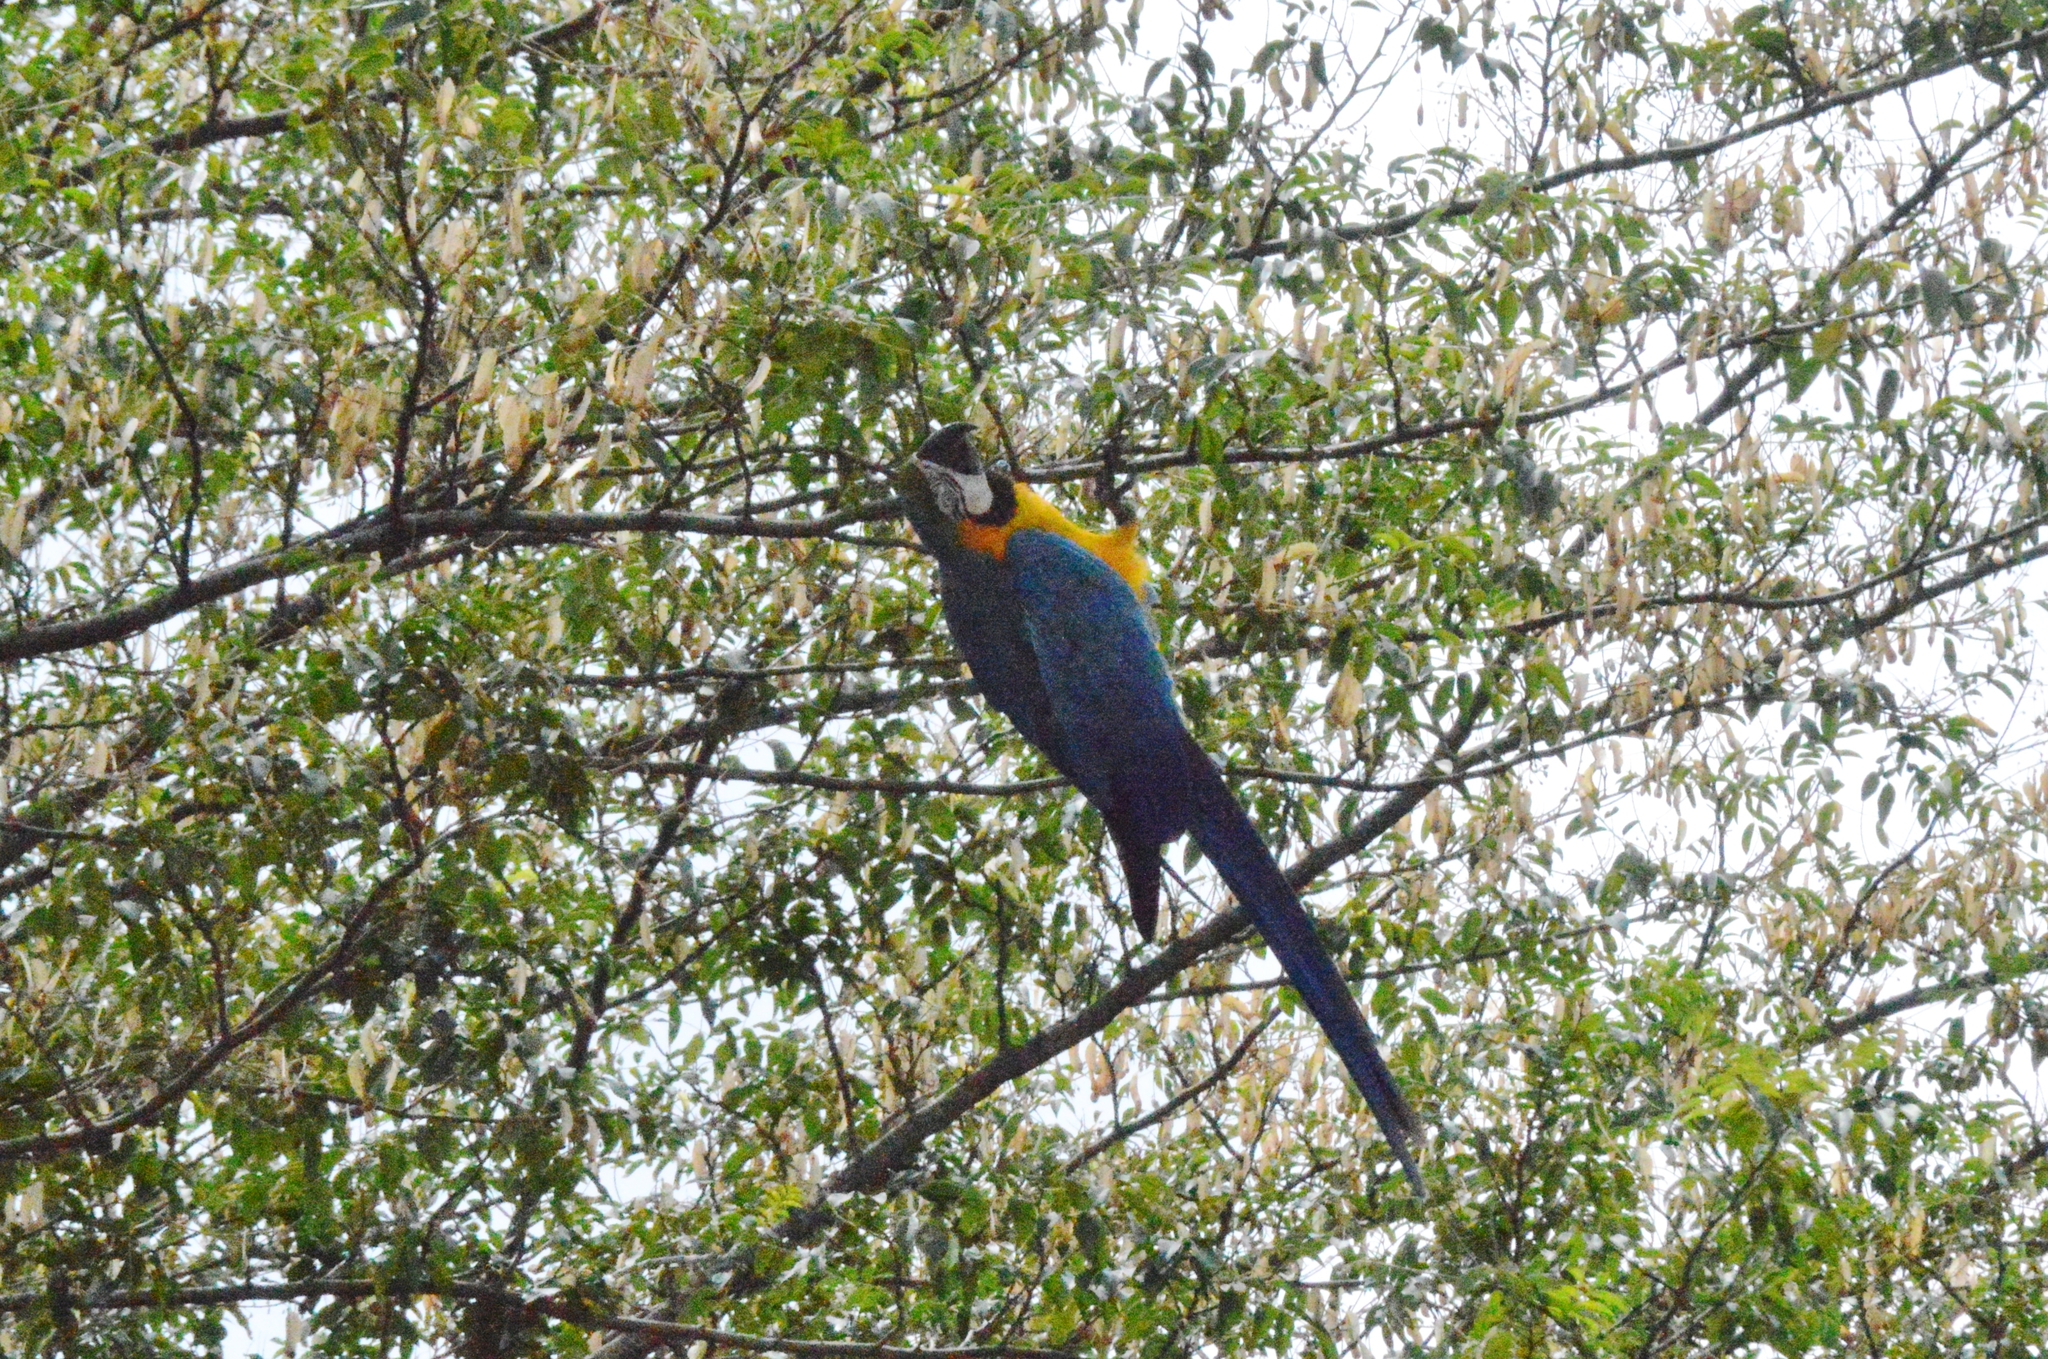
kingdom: Animalia
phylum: Chordata
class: Aves
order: Psittaciformes
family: Psittacidae
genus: Ara
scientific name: Ara ararauna
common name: Blue-and-yellow macaw
